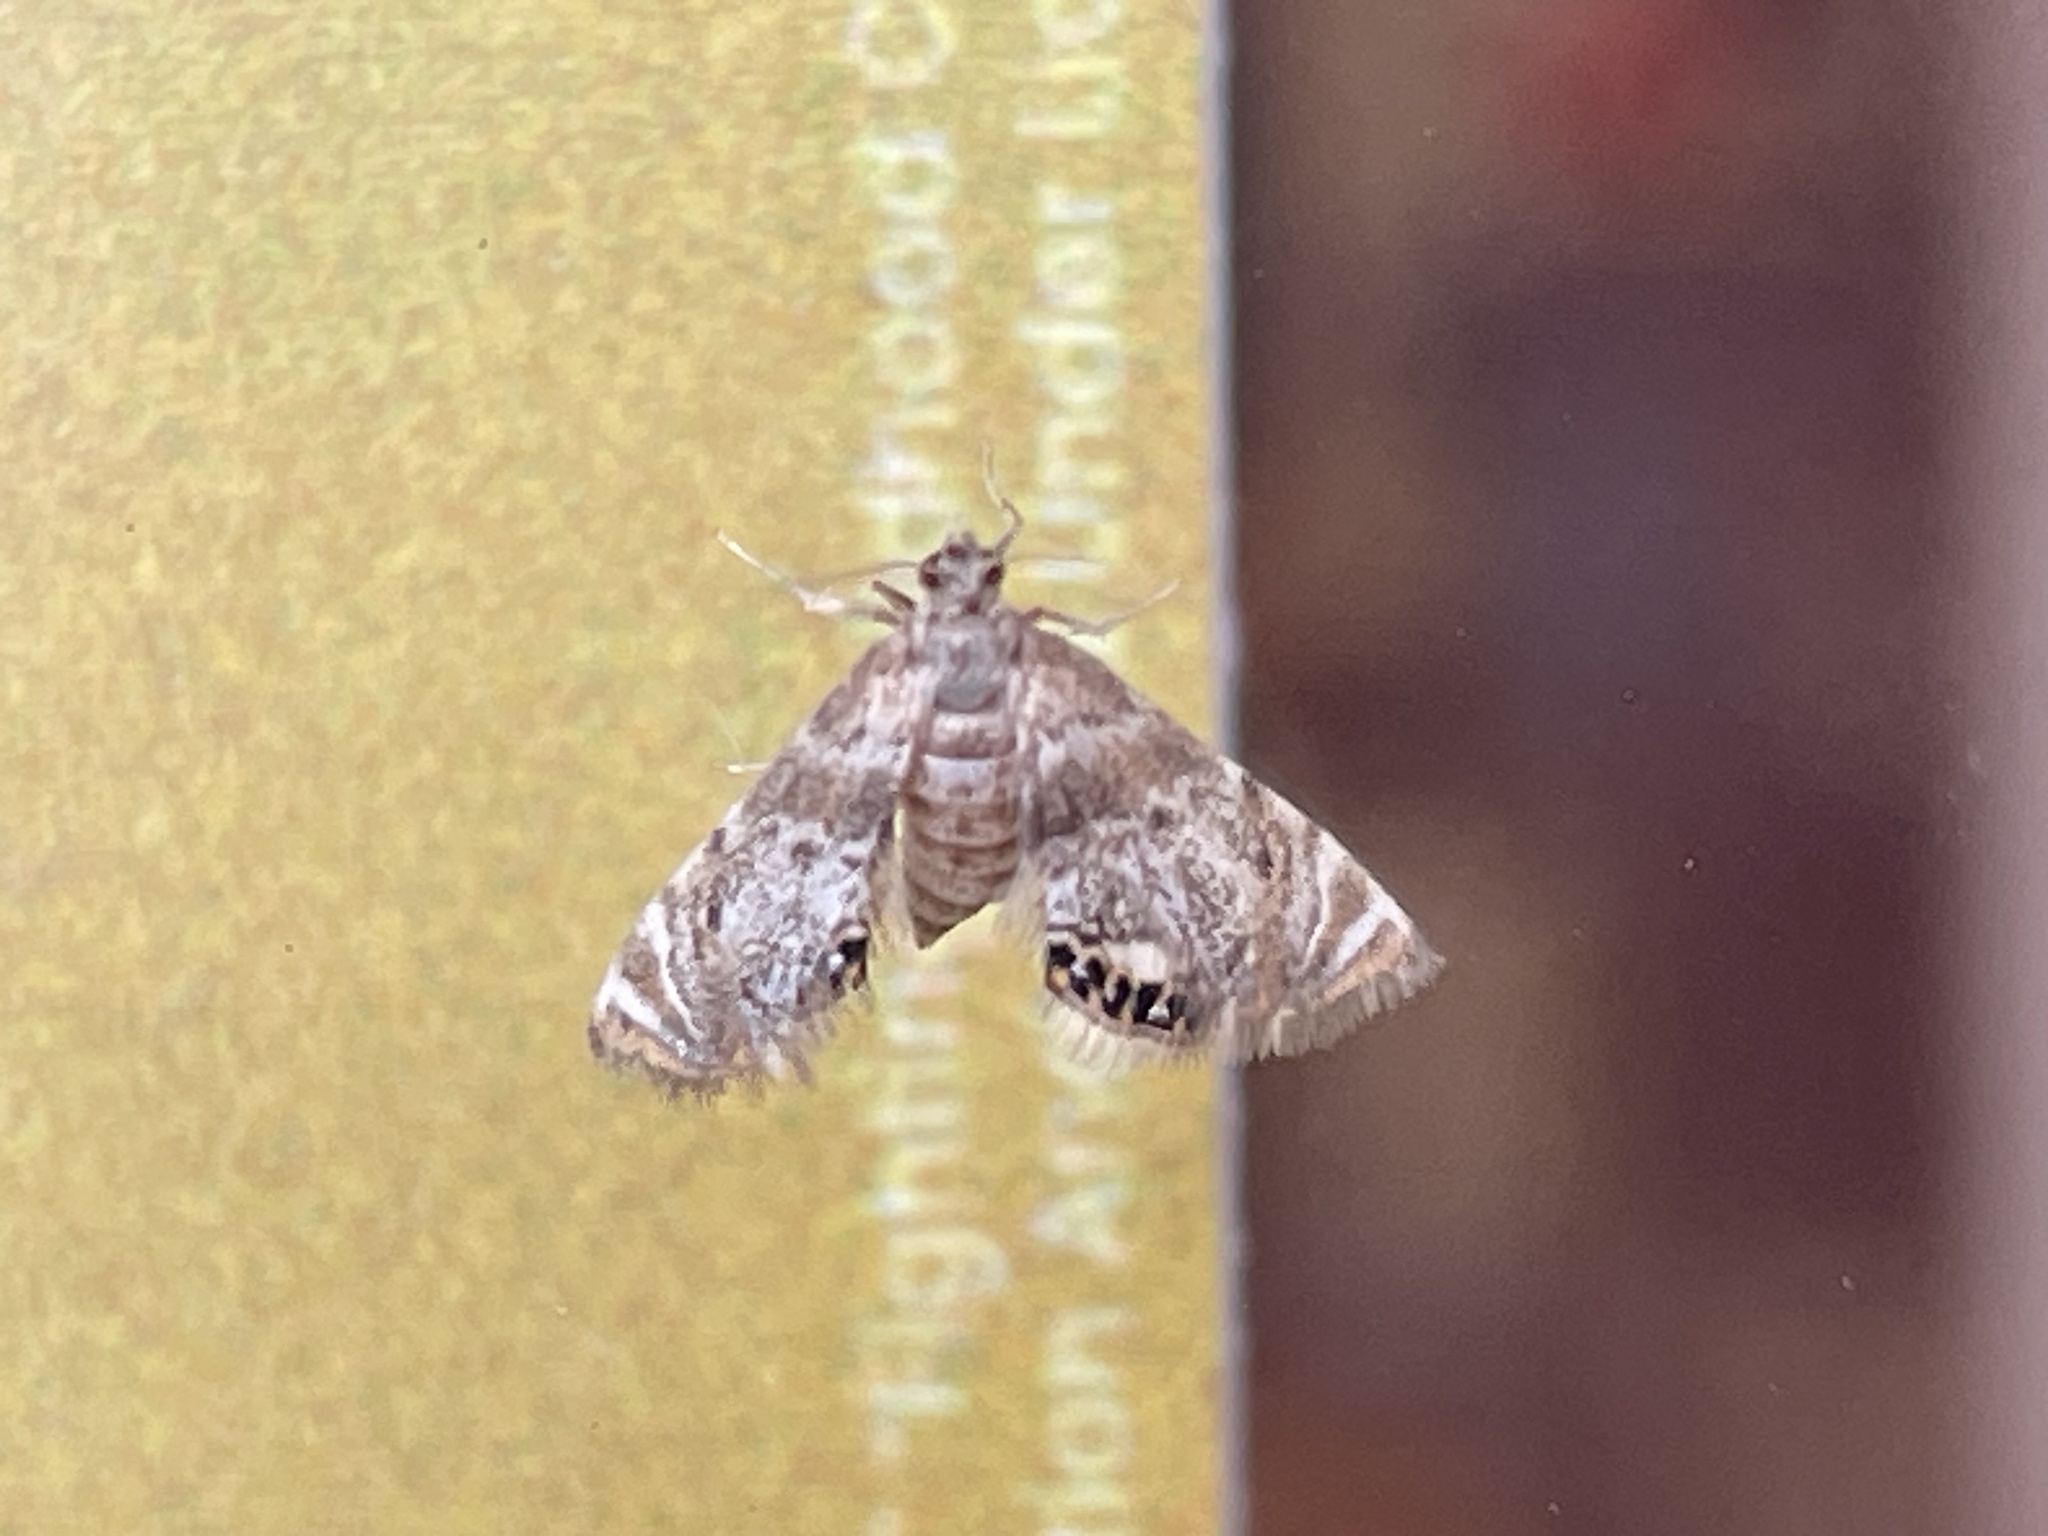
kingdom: Animalia
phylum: Arthropoda
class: Insecta
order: Lepidoptera
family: Crambidae
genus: Petrophila
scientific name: Petrophila fulicalis
